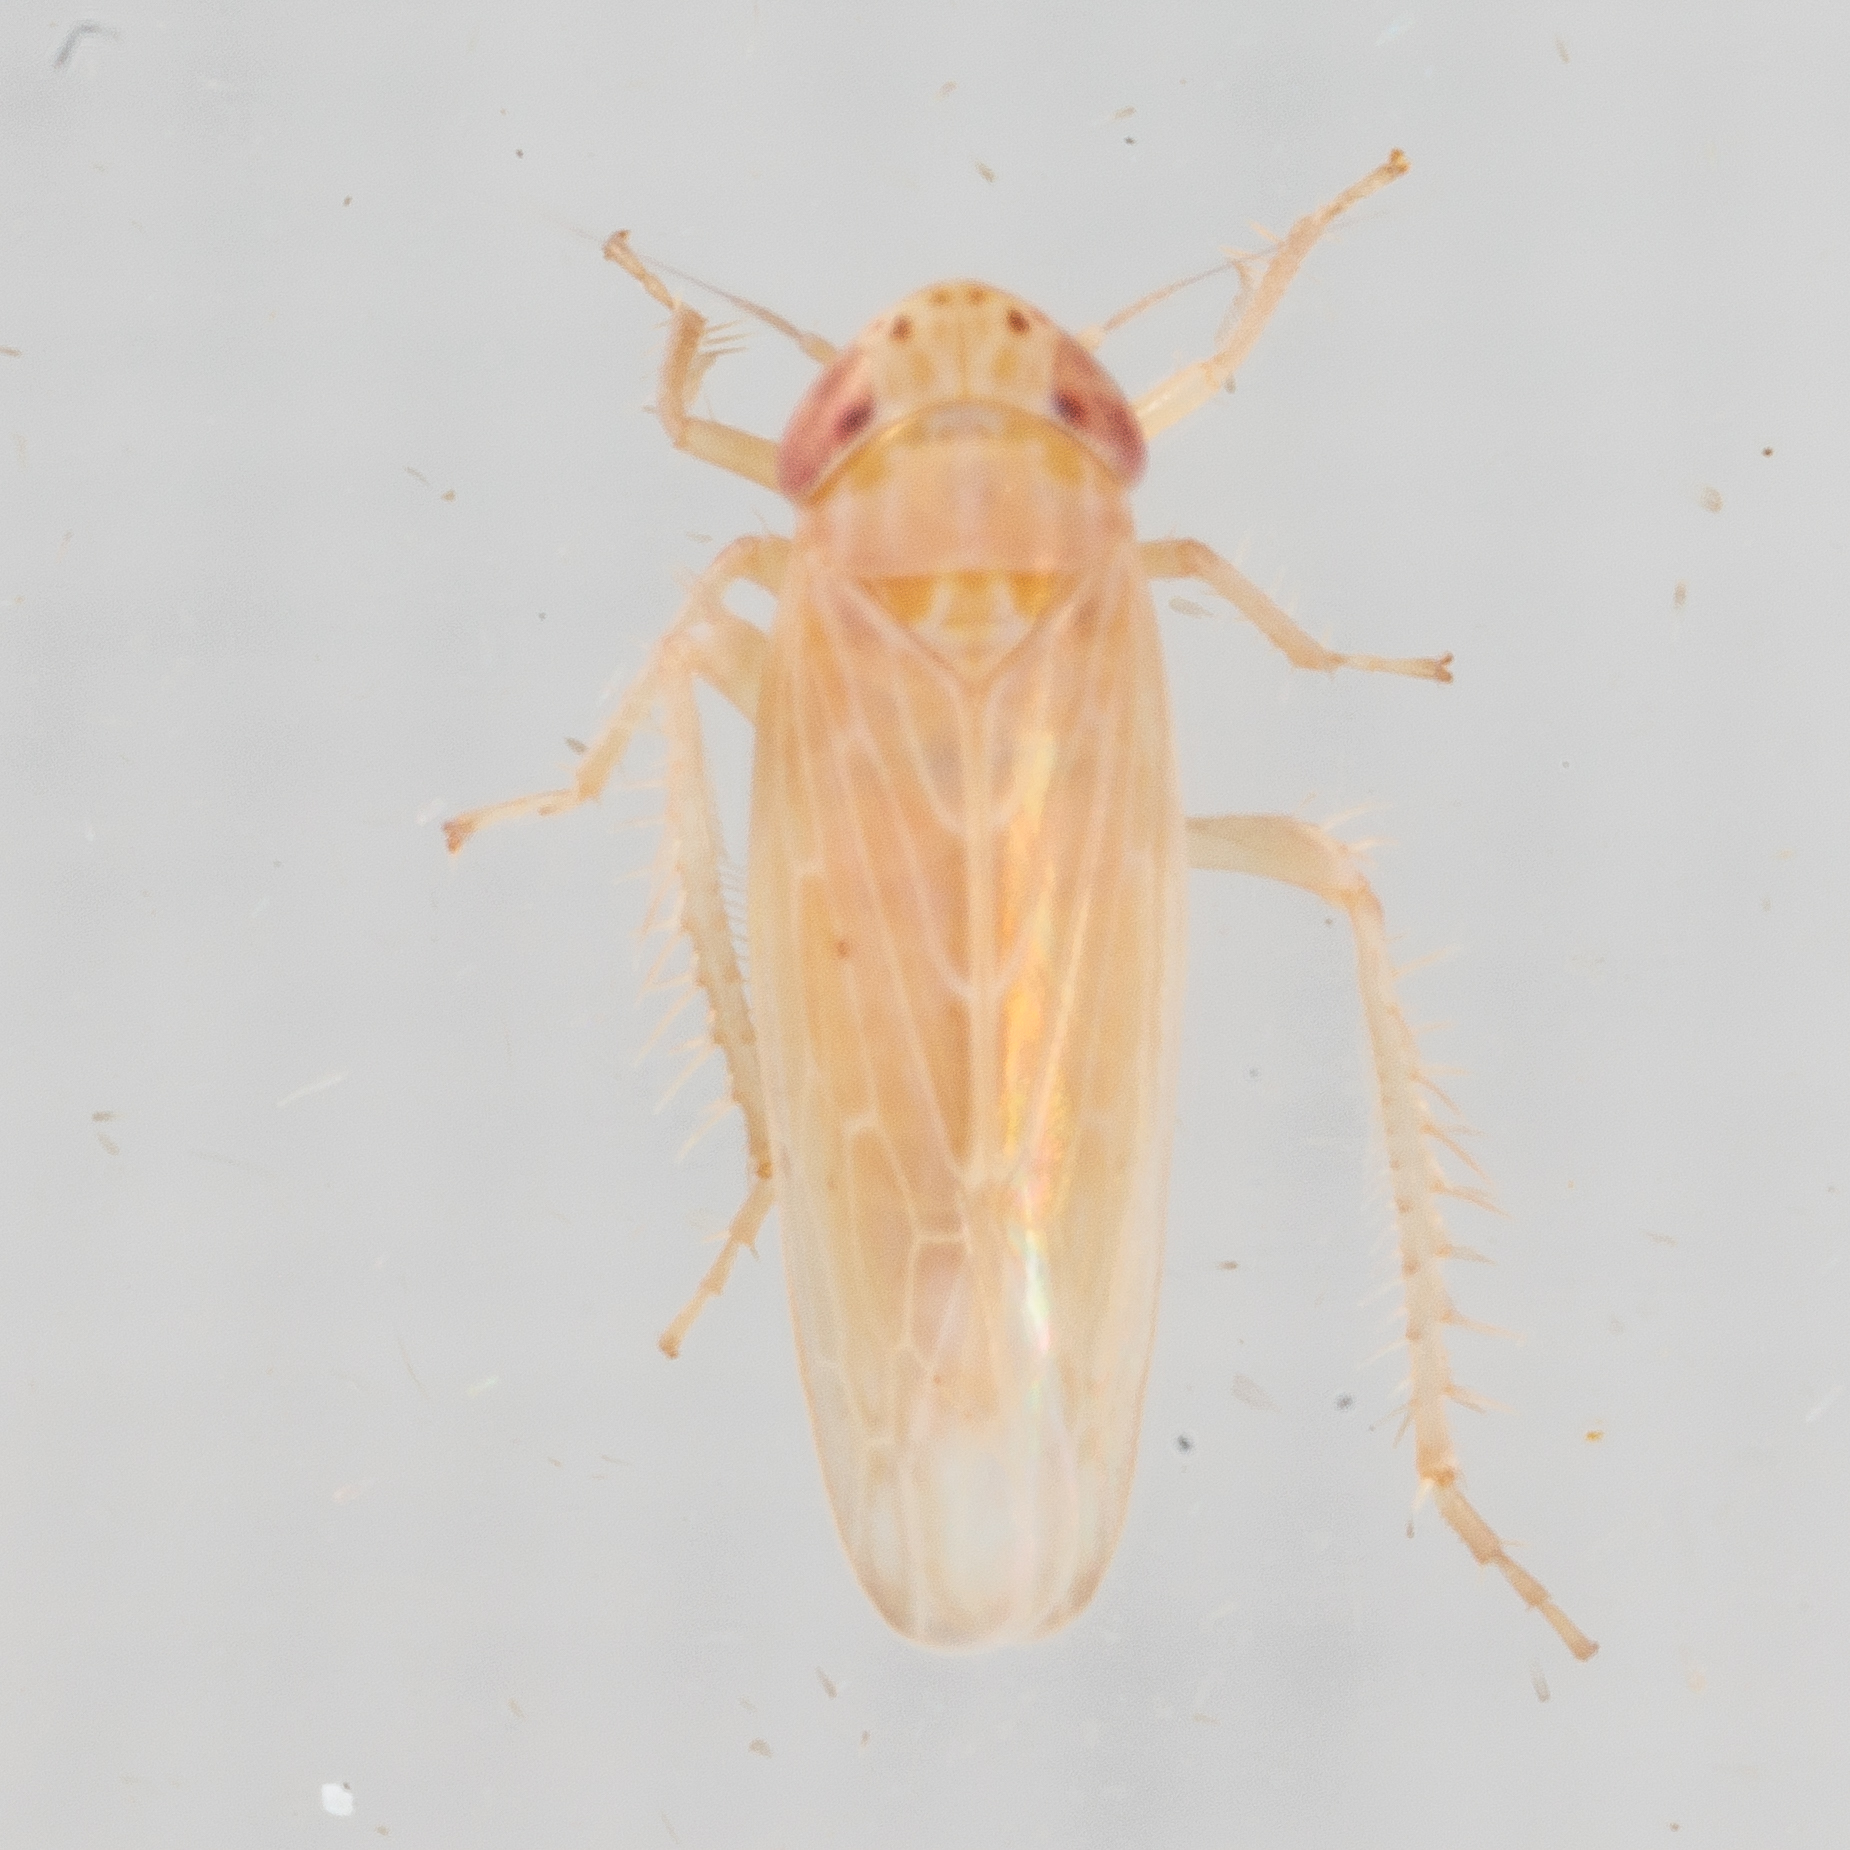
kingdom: Animalia
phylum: Arthropoda
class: Insecta
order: Hemiptera
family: Cicadellidae
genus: Graminella
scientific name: Graminella sonora
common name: Lesser lawn leafhopper
